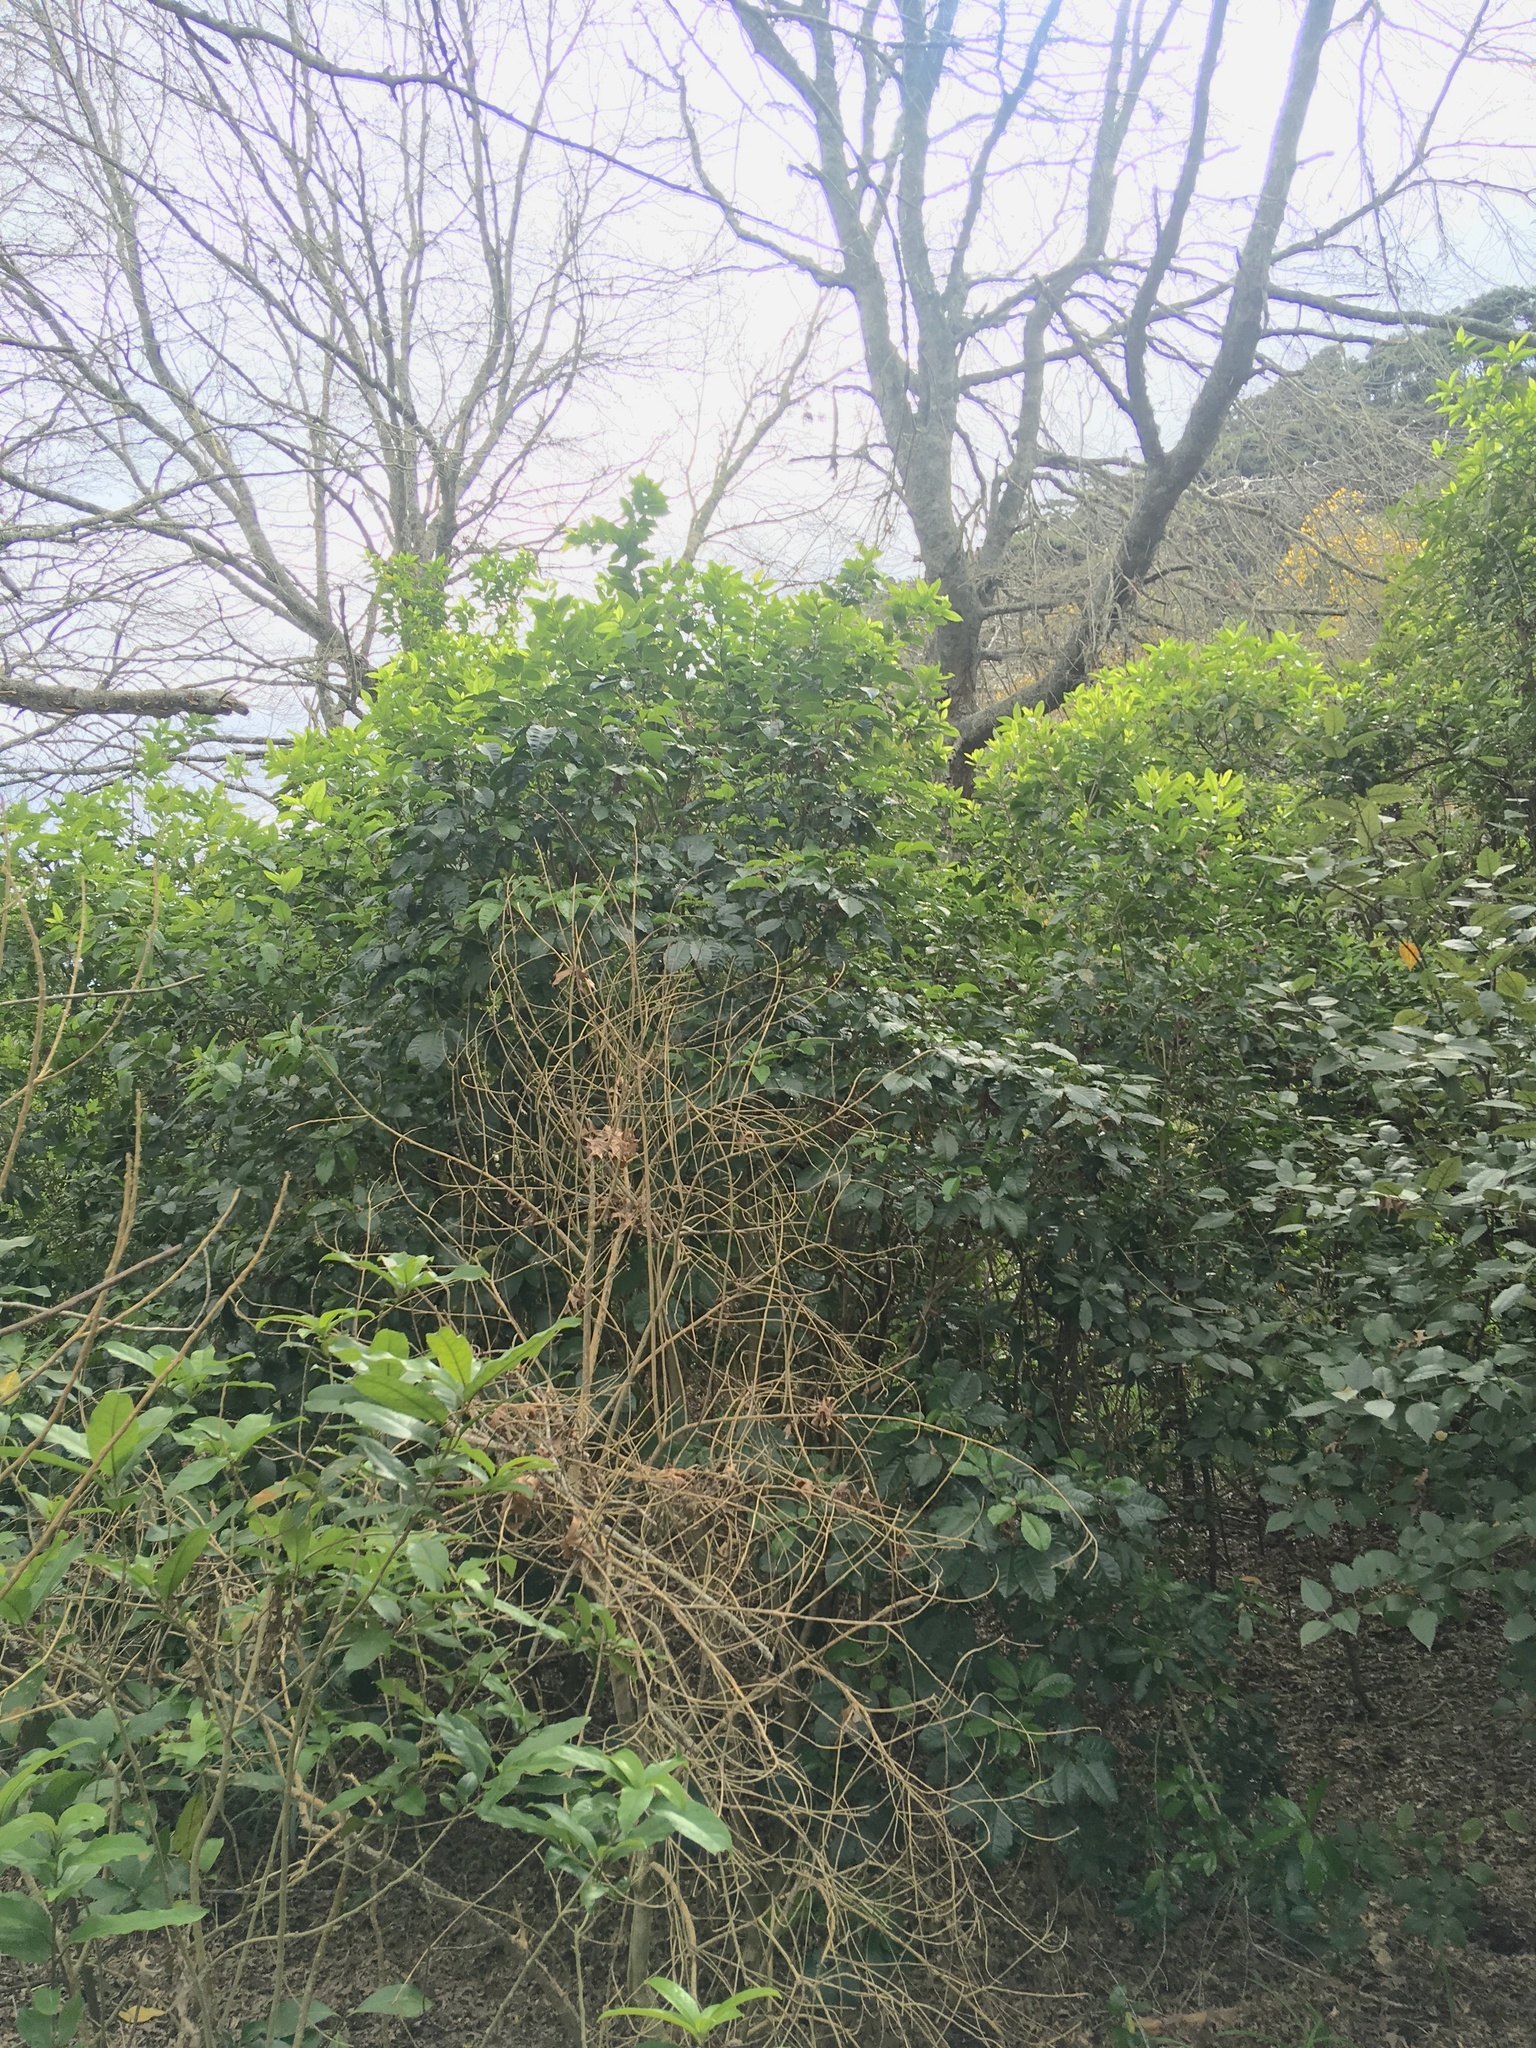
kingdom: Plantae
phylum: Tracheophyta
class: Magnoliopsida
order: Lamiales
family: Lamiaceae
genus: Vitex
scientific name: Vitex lucens
